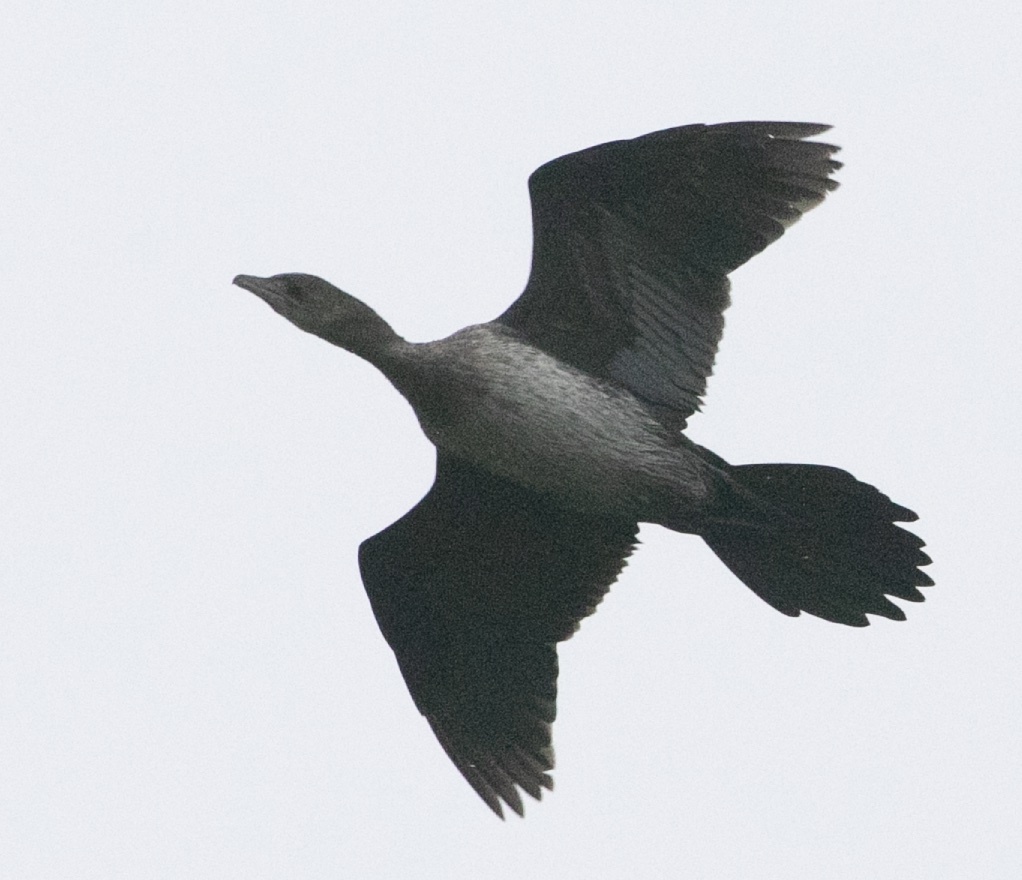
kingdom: Animalia
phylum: Chordata
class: Aves
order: Suliformes
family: Phalacrocoracidae
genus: Microcarbo
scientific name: Microcarbo pygmaeus
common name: Pygmy cormorant
